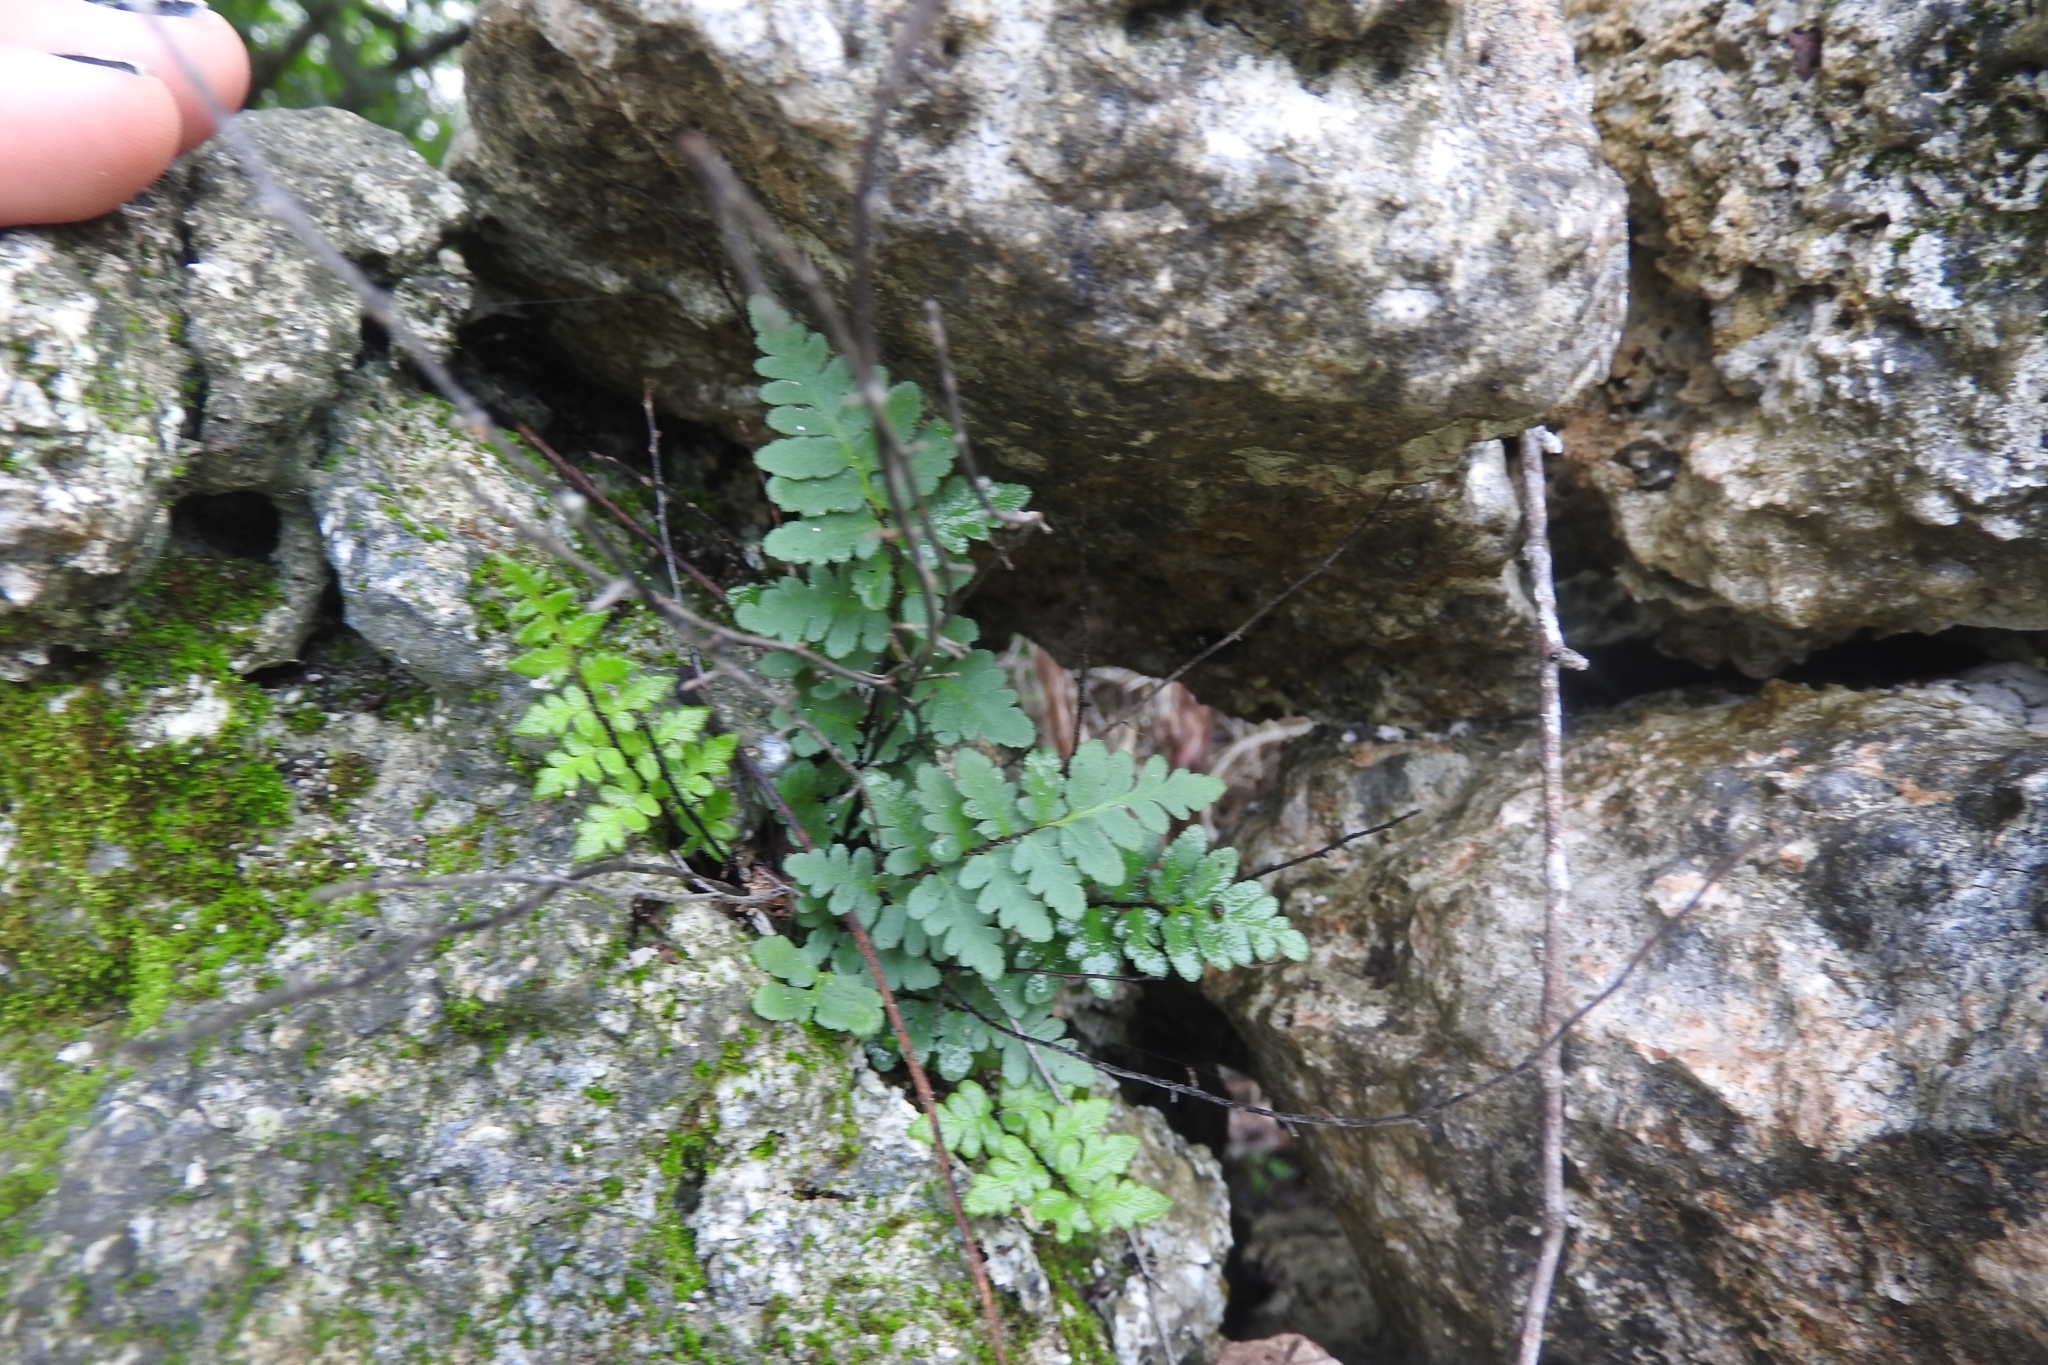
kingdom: Plantae
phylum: Tracheophyta
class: Polypodiopsida
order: Polypodiales
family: Pteridaceae
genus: Myriopteris
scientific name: Myriopteris scabra
